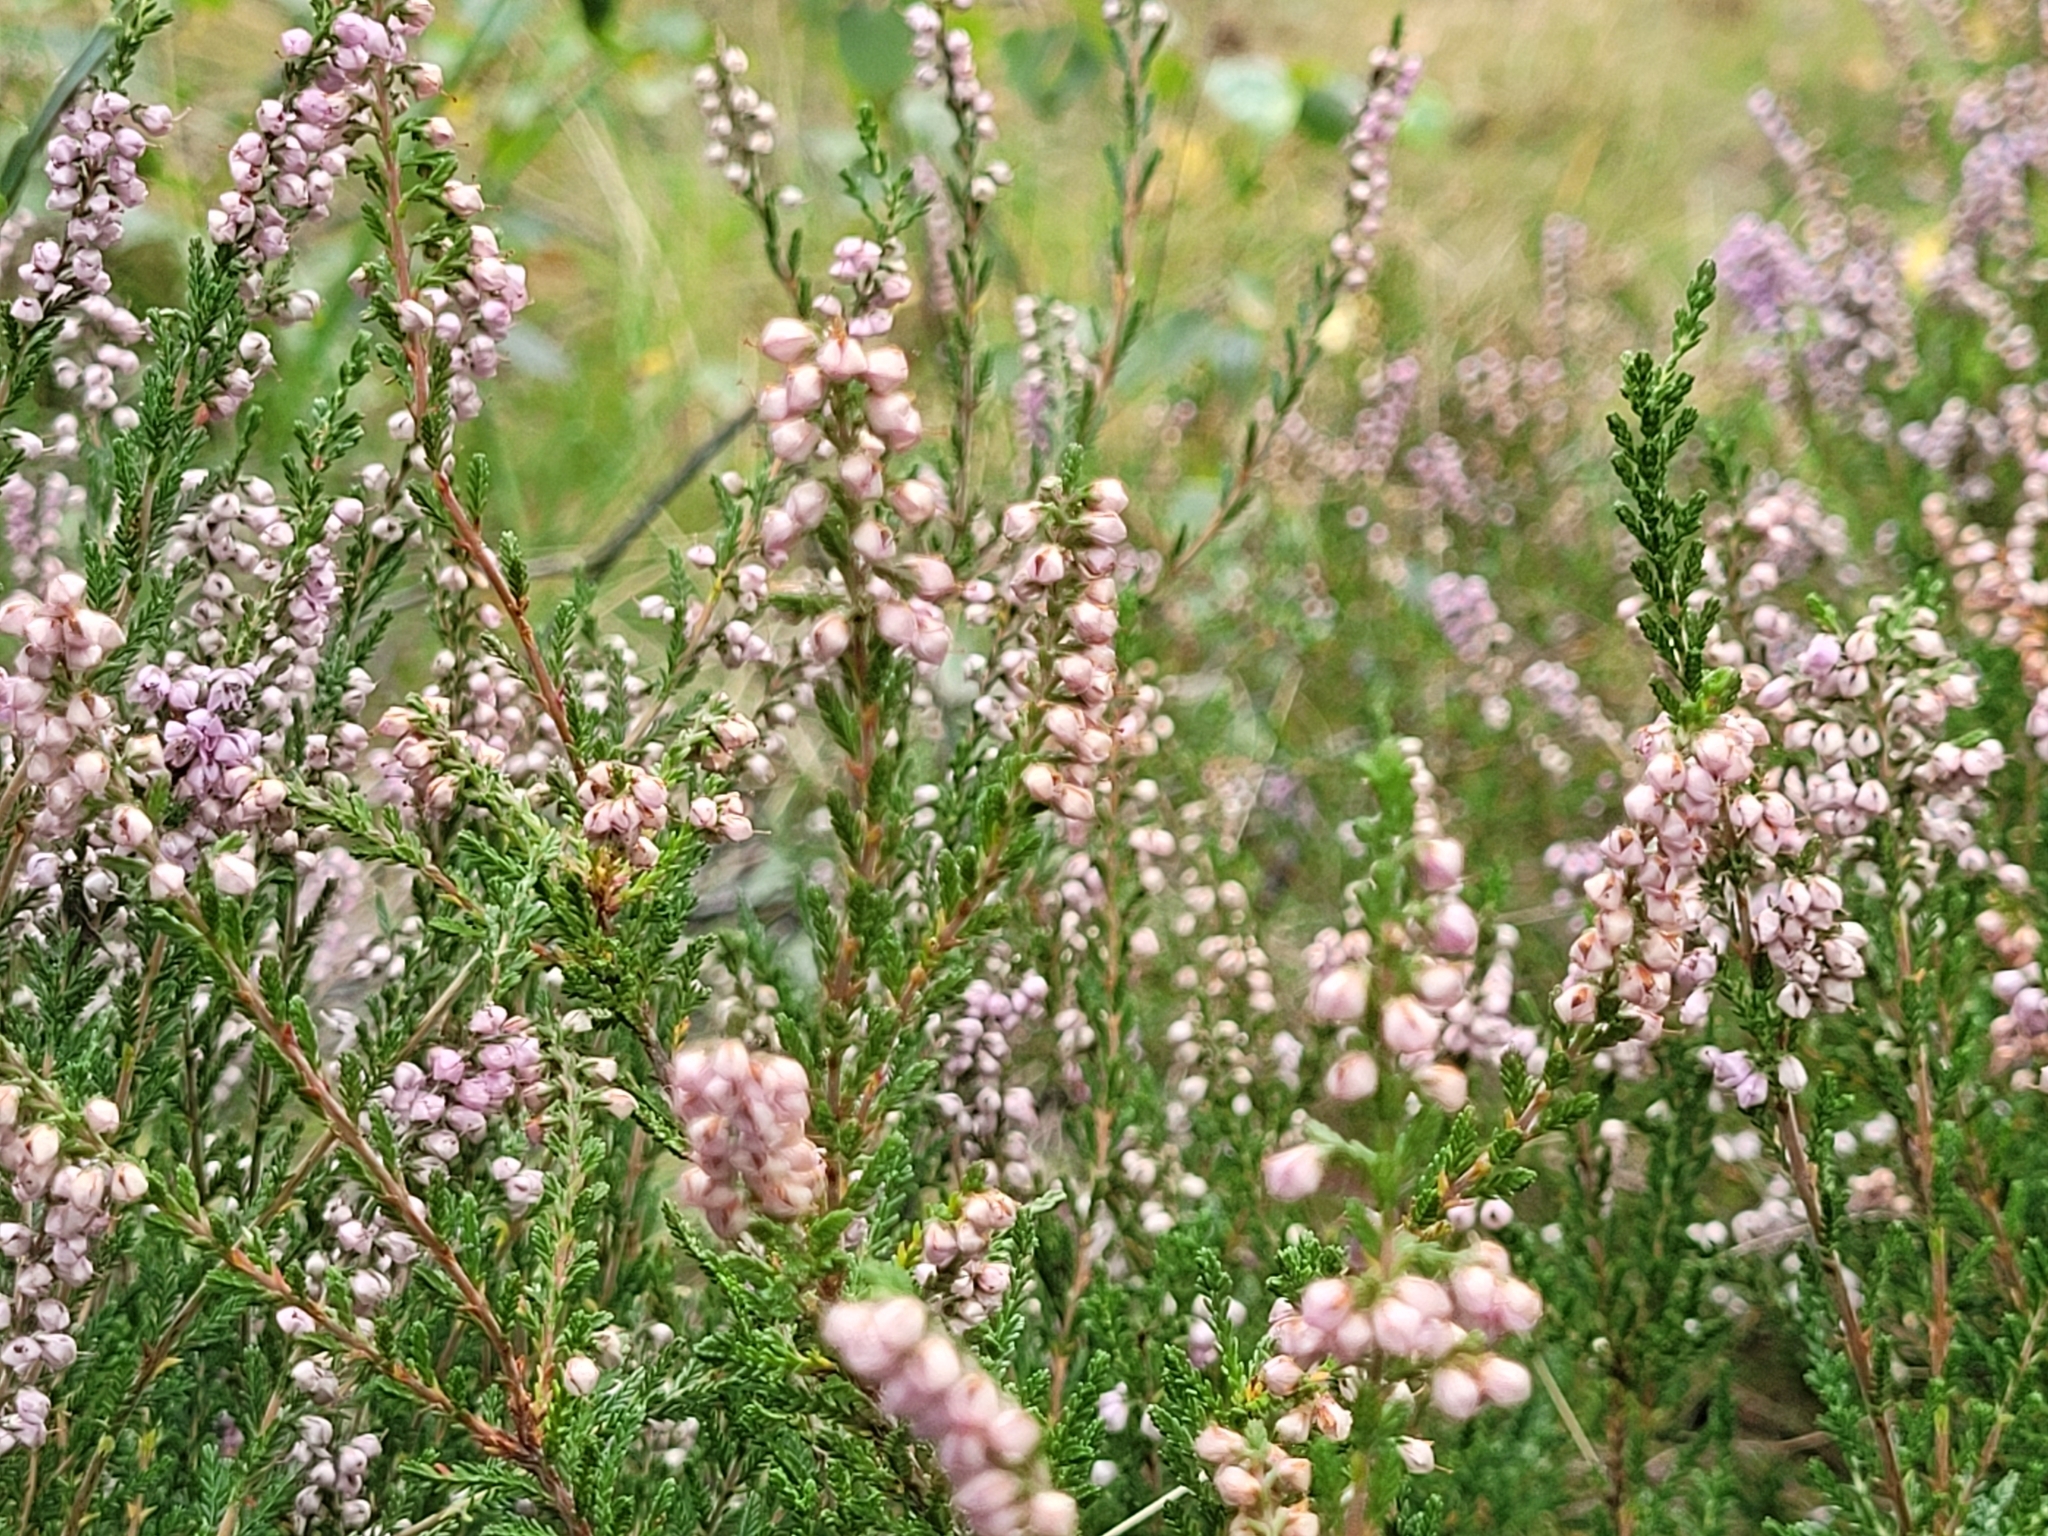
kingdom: Plantae
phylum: Tracheophyta
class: Magnoliopsida
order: Ericales
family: Ericaceae
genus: Calluna
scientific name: Calluna vulgaris
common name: Heather
